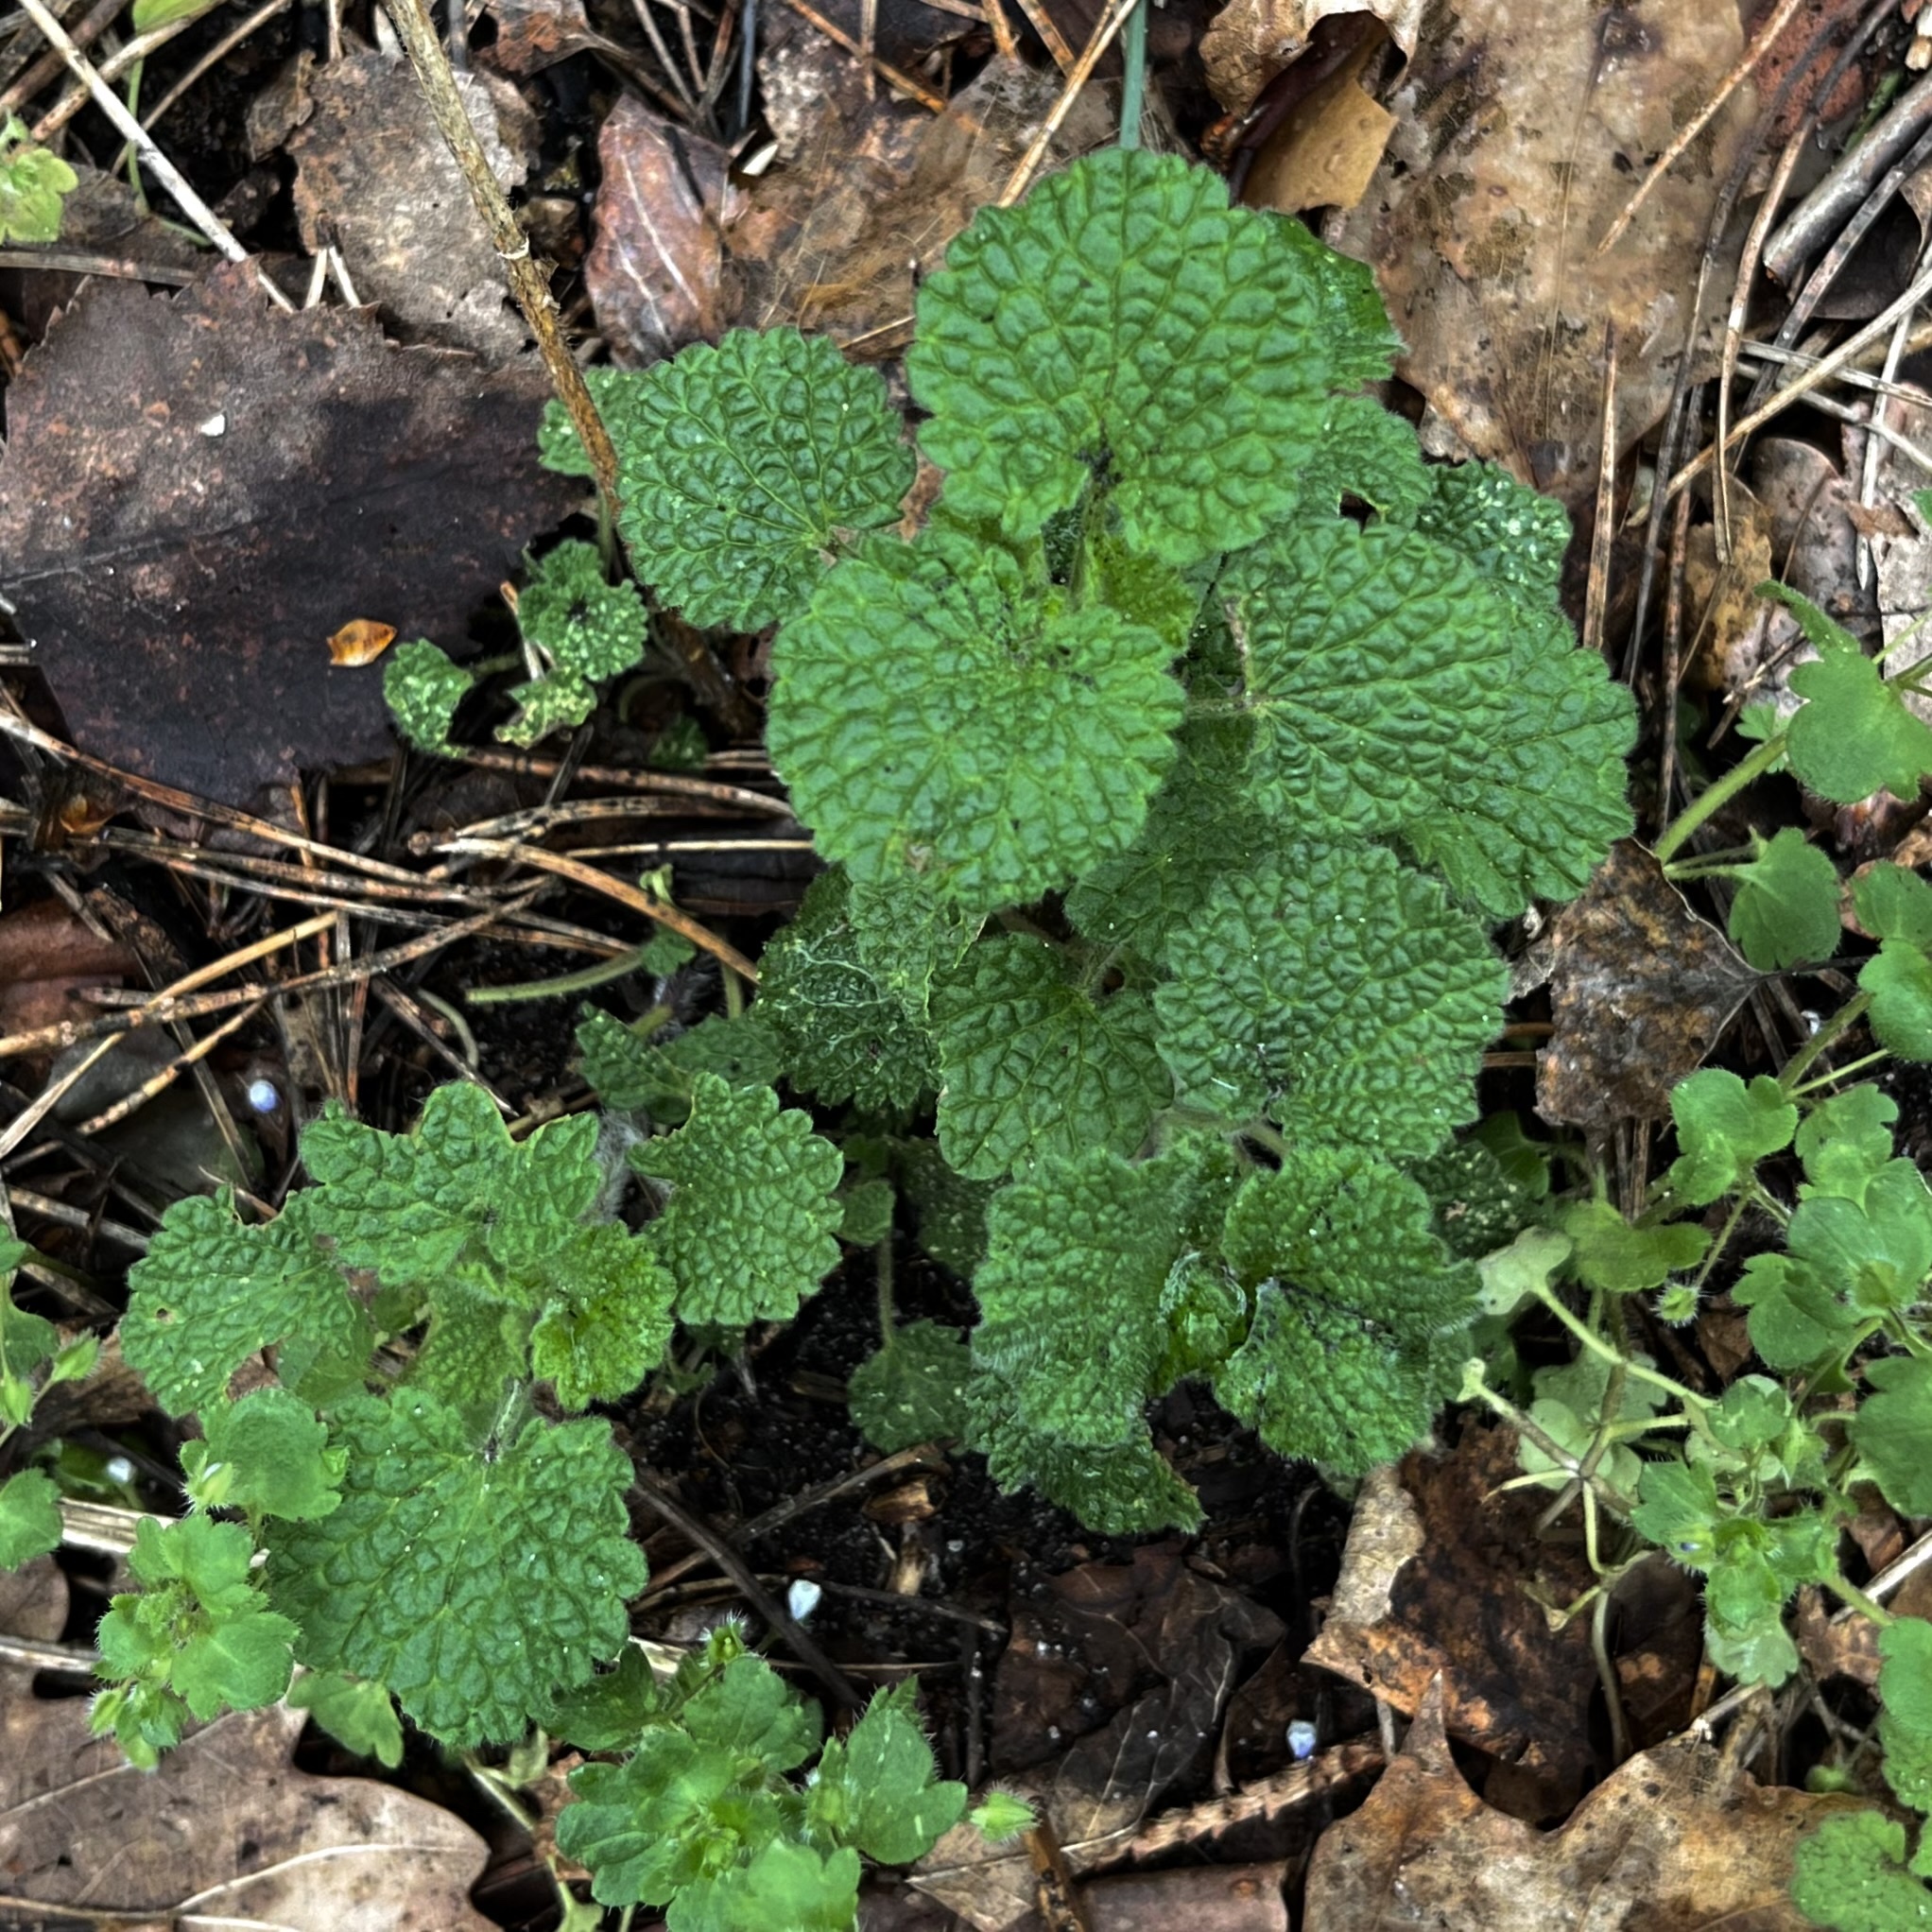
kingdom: Plantae
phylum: Tracheophyta
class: Magnoliopsida
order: Lamiales
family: Lamiaceae
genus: Ballota
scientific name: Ballota nigra
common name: Black horehound
